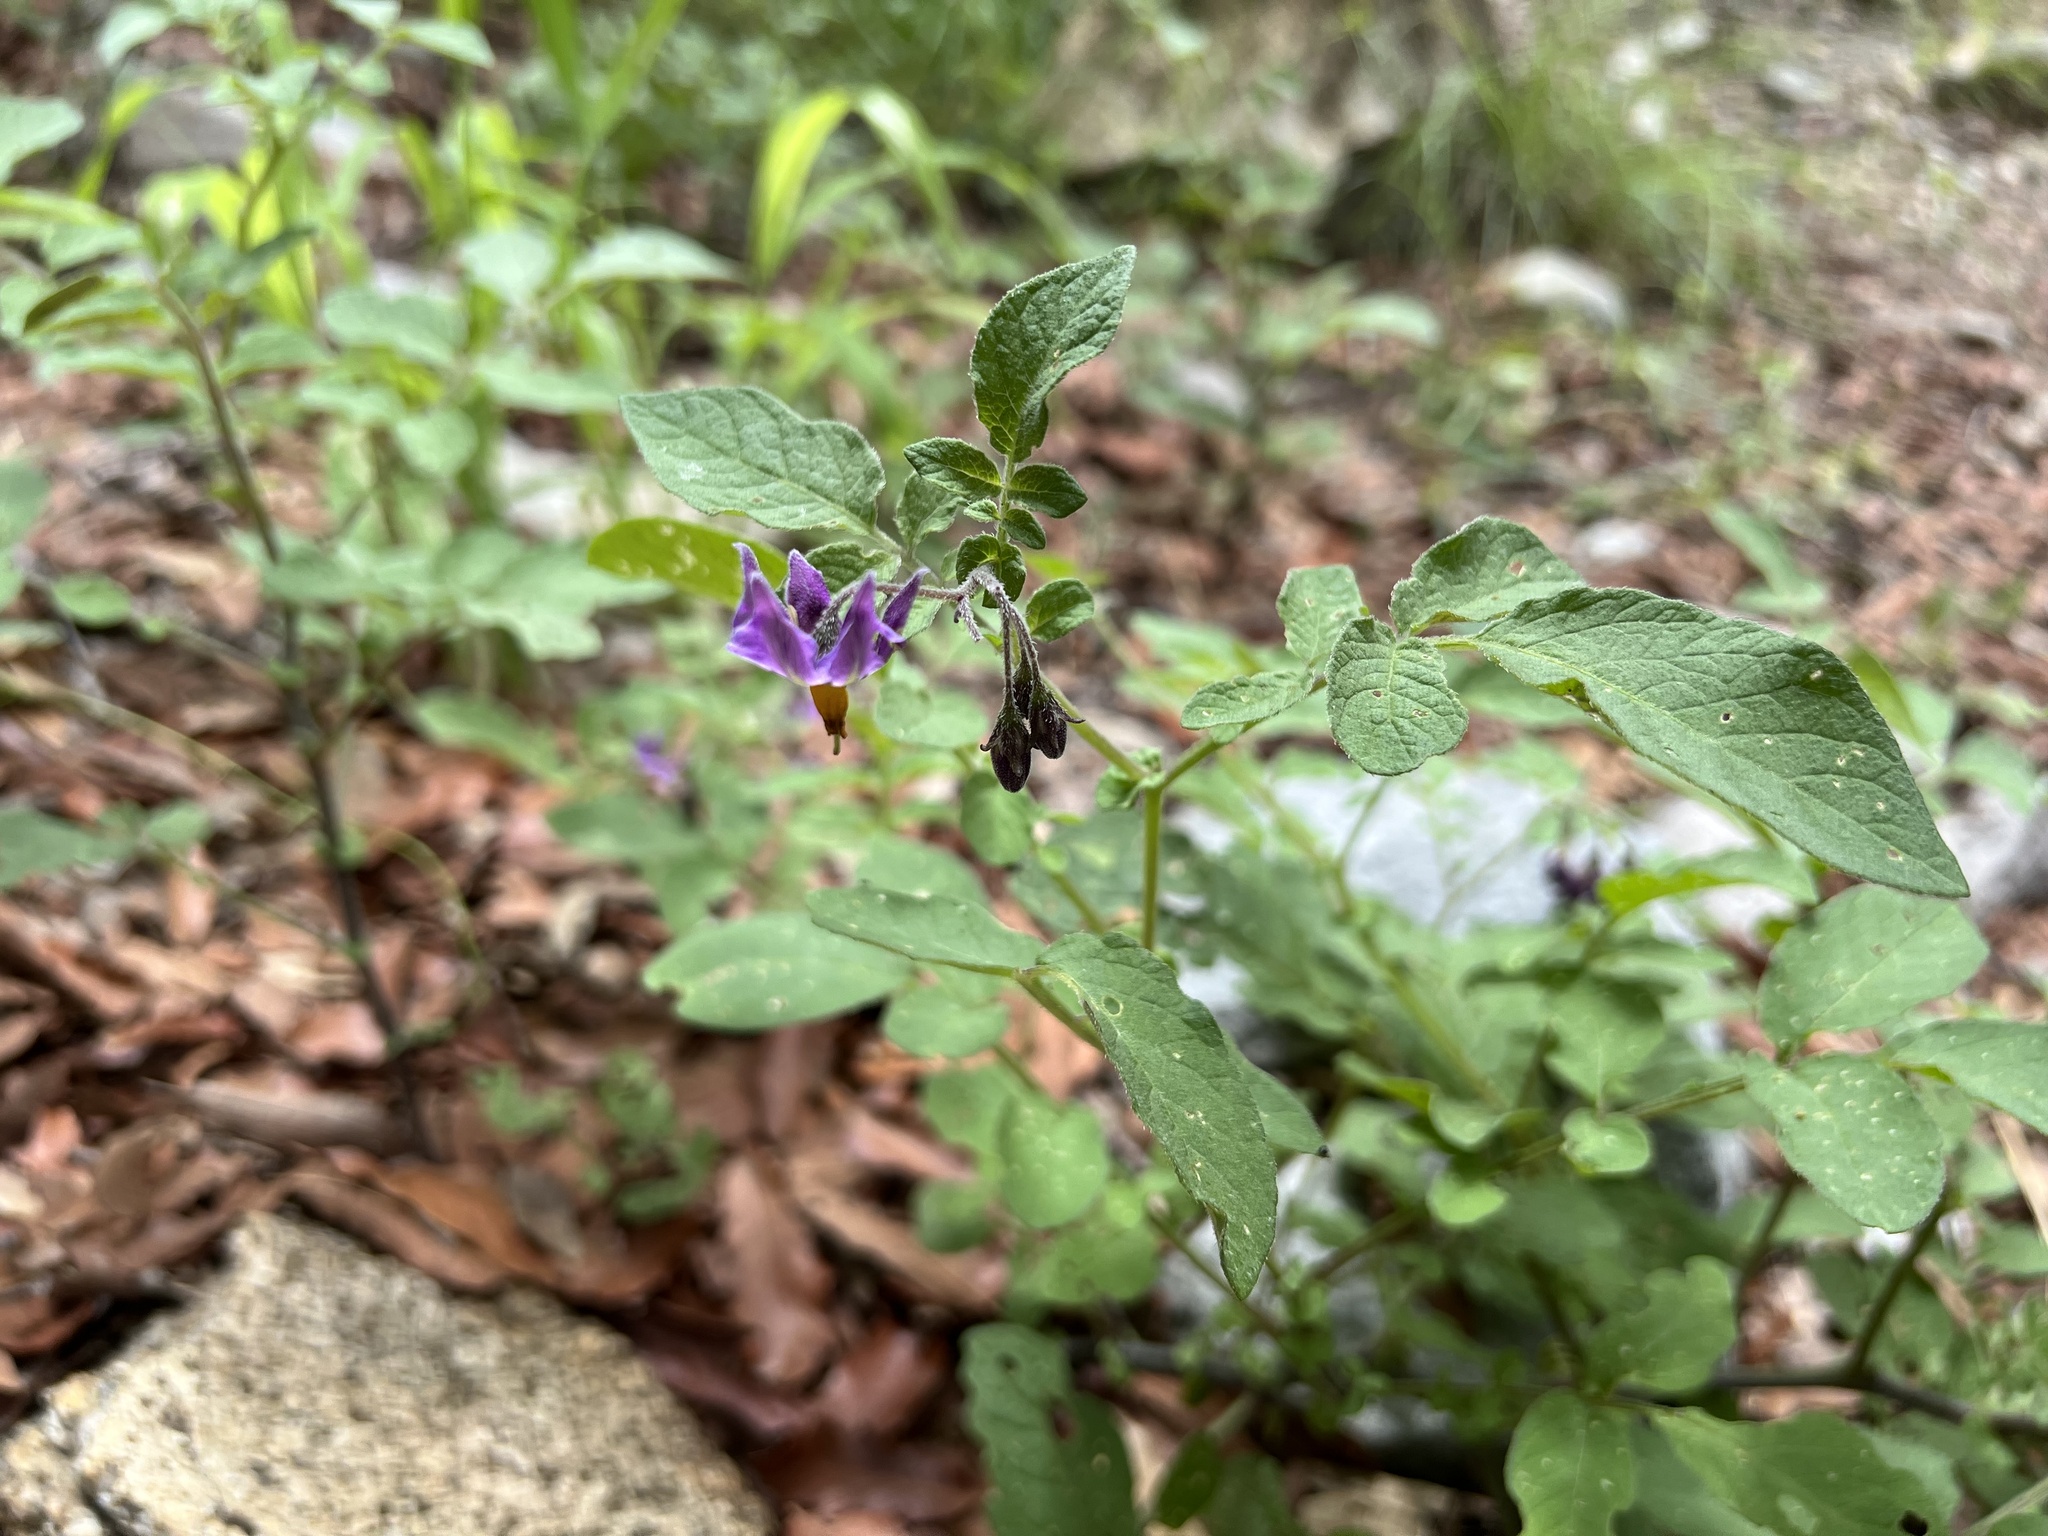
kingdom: Plantae
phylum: Tracheophyta
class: Magnoliopsida
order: Solanales
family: Solanaceae
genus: Solanum
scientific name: Solanum stoloniferum
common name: Fendler's nighshade
